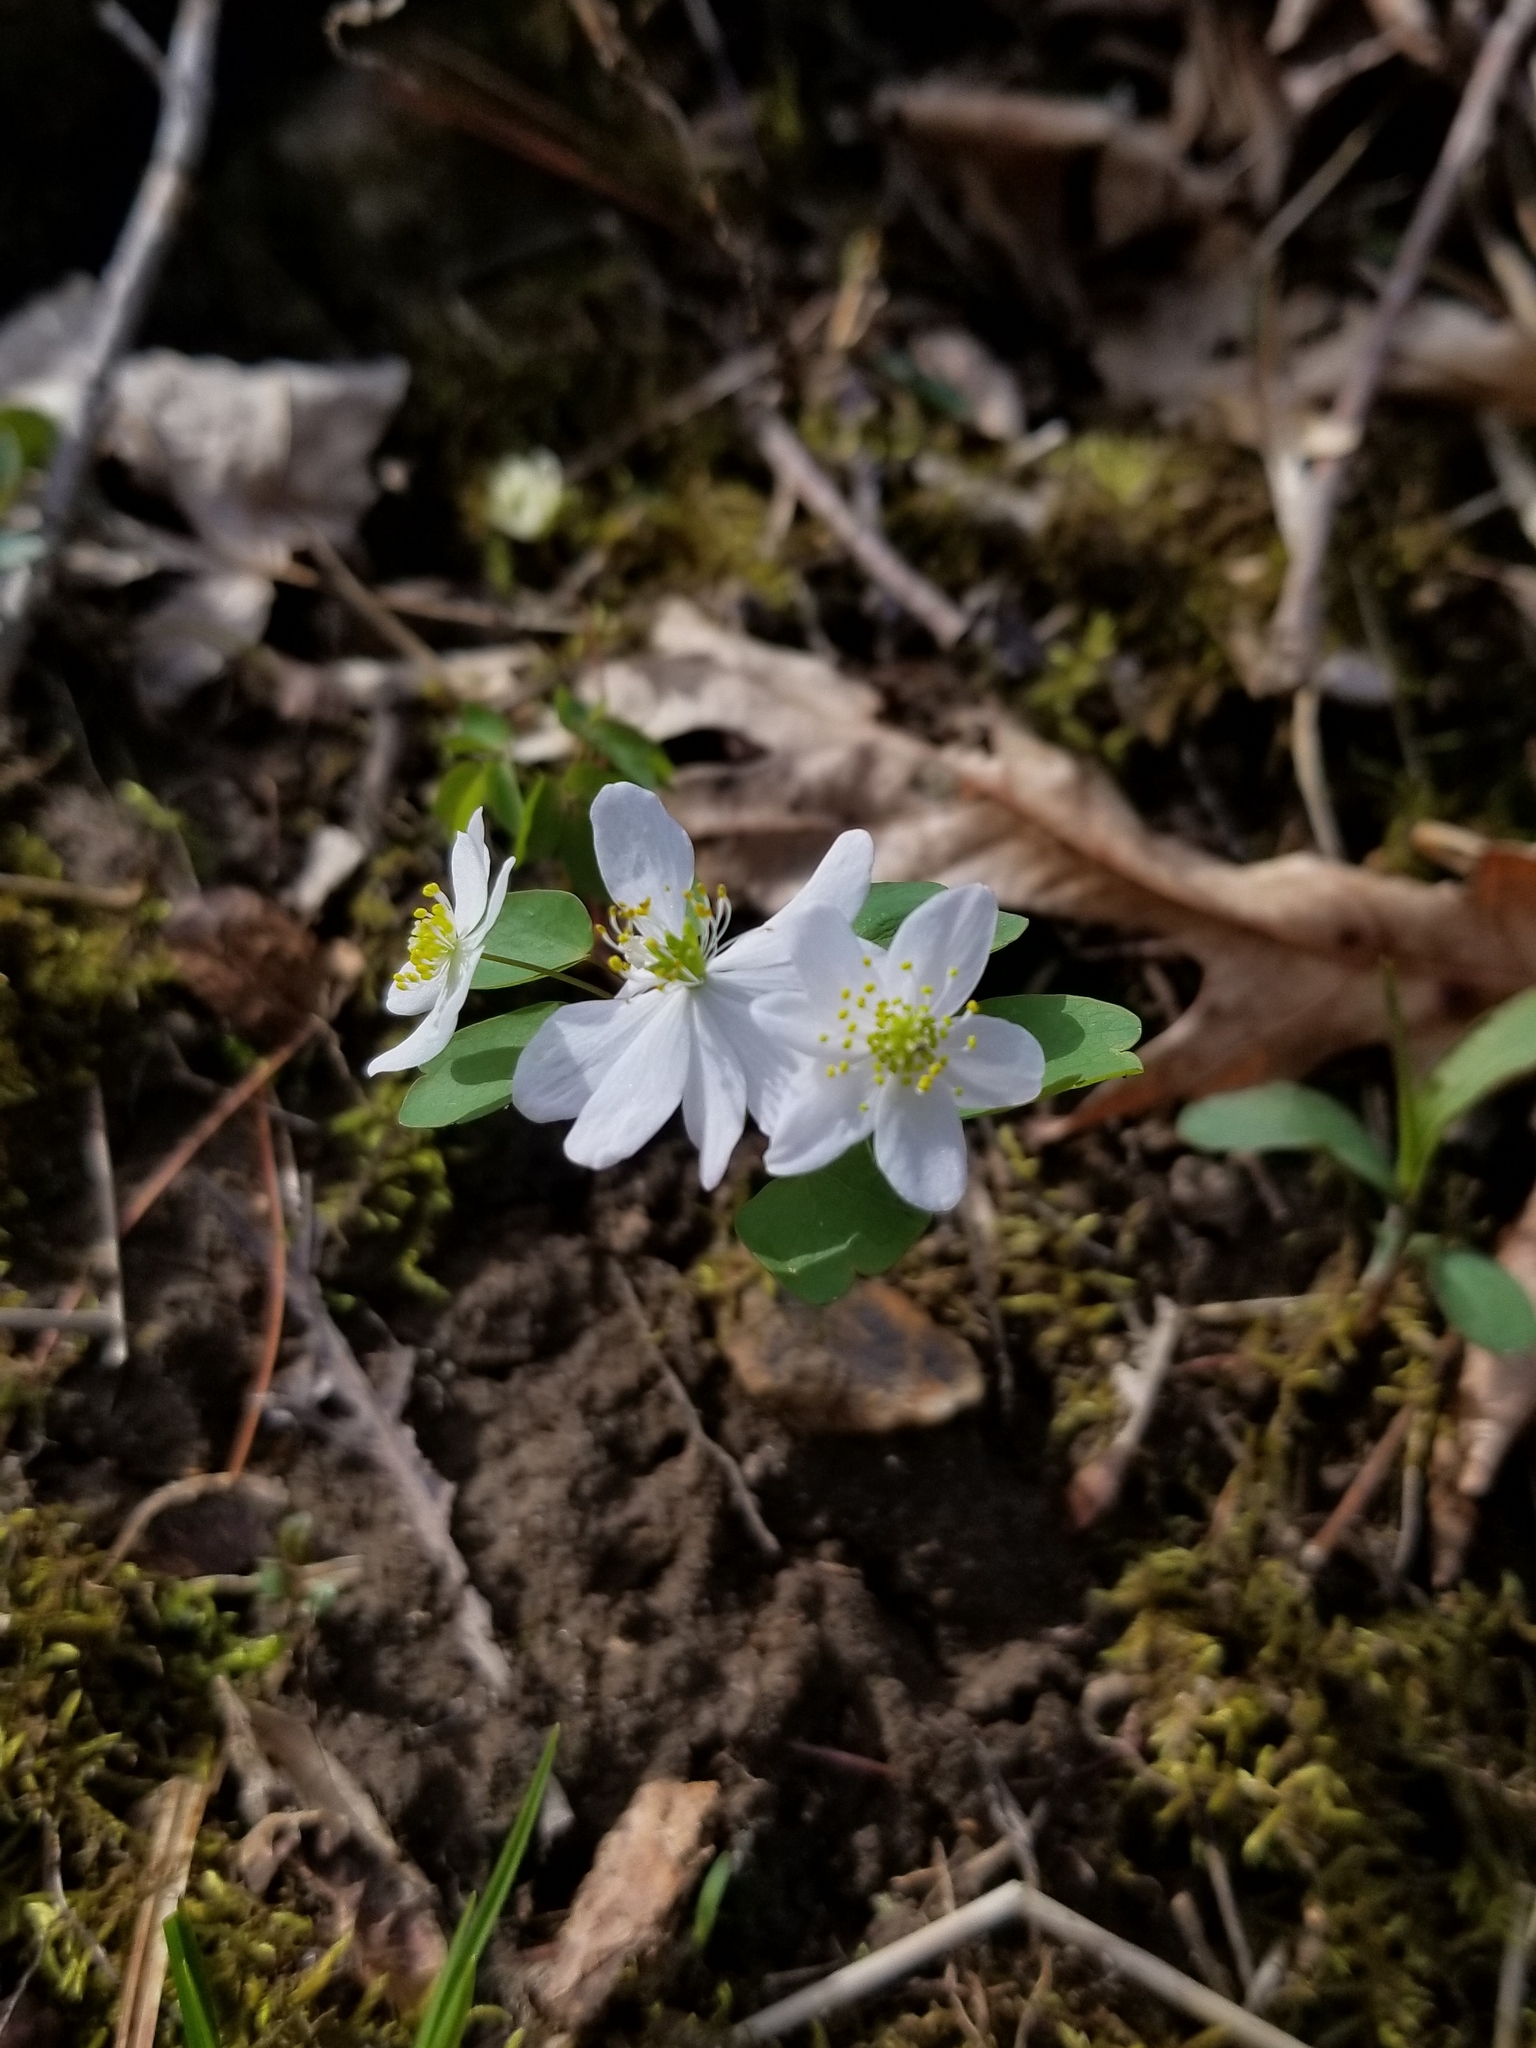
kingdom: Plantae
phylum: Tracheophyta
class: Magnoliopsida
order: Ranunculales
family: Ranunculaceae
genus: Thalictrum
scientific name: Thalictrum thalictroides
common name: Rue-anemone
